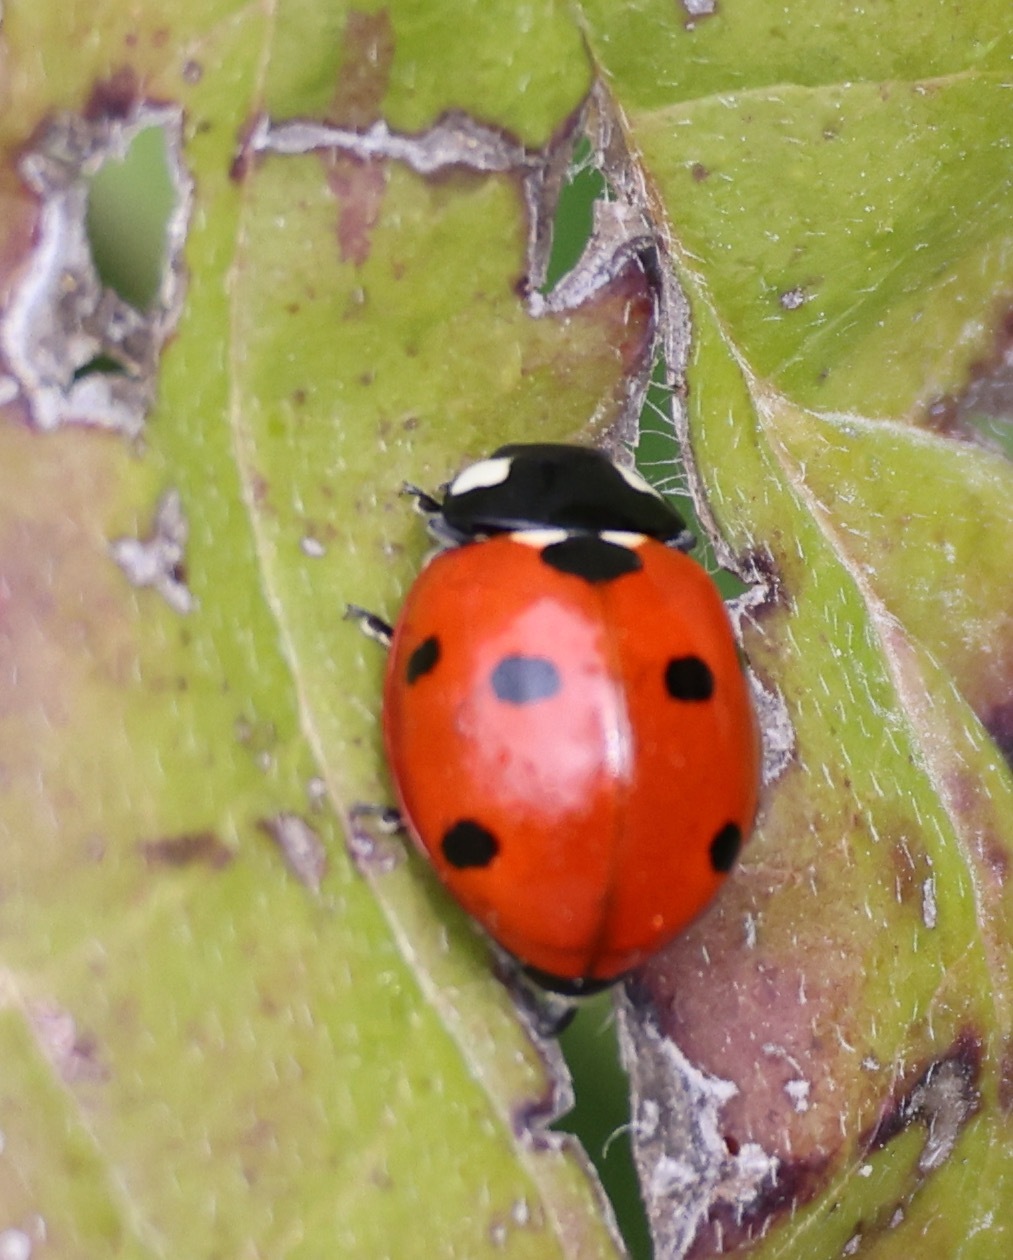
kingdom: Animalia
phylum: Arthropoda
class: Insecta
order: Coleoptera
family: Coccinellidae
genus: Coccinella
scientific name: Coccinella septempunctata
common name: Sevenspotted lady beetle
